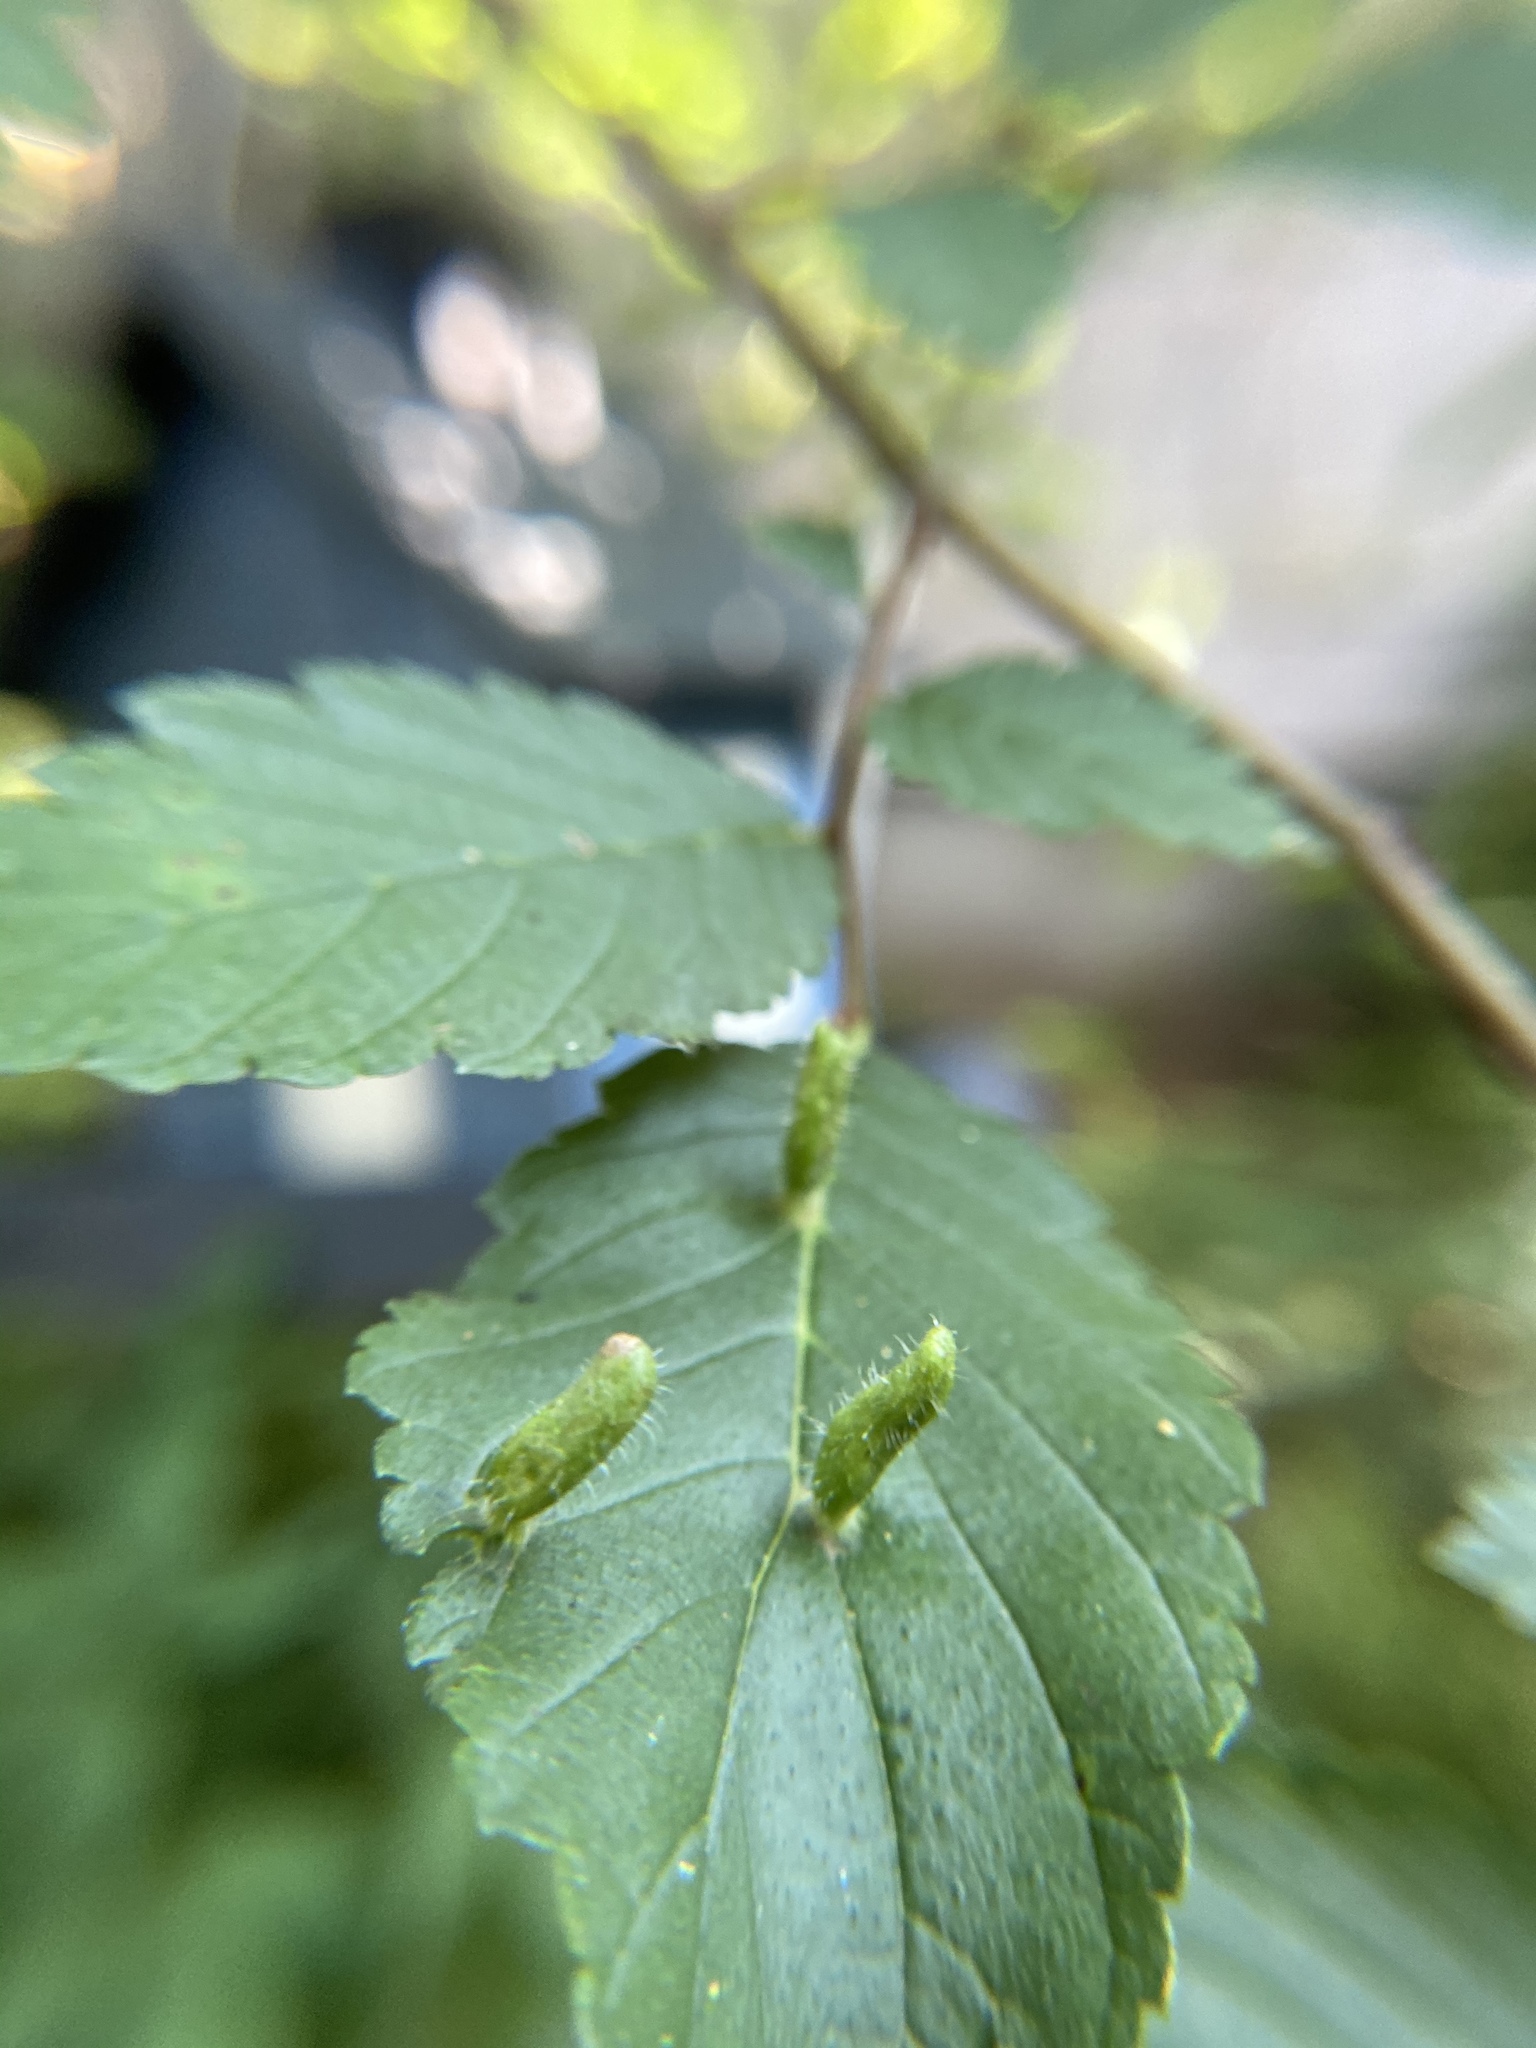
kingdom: Animalia
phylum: Arthropoda
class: Arachnida
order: Trombidiformes
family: Eriophyidae
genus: Aceria
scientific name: Aceria
